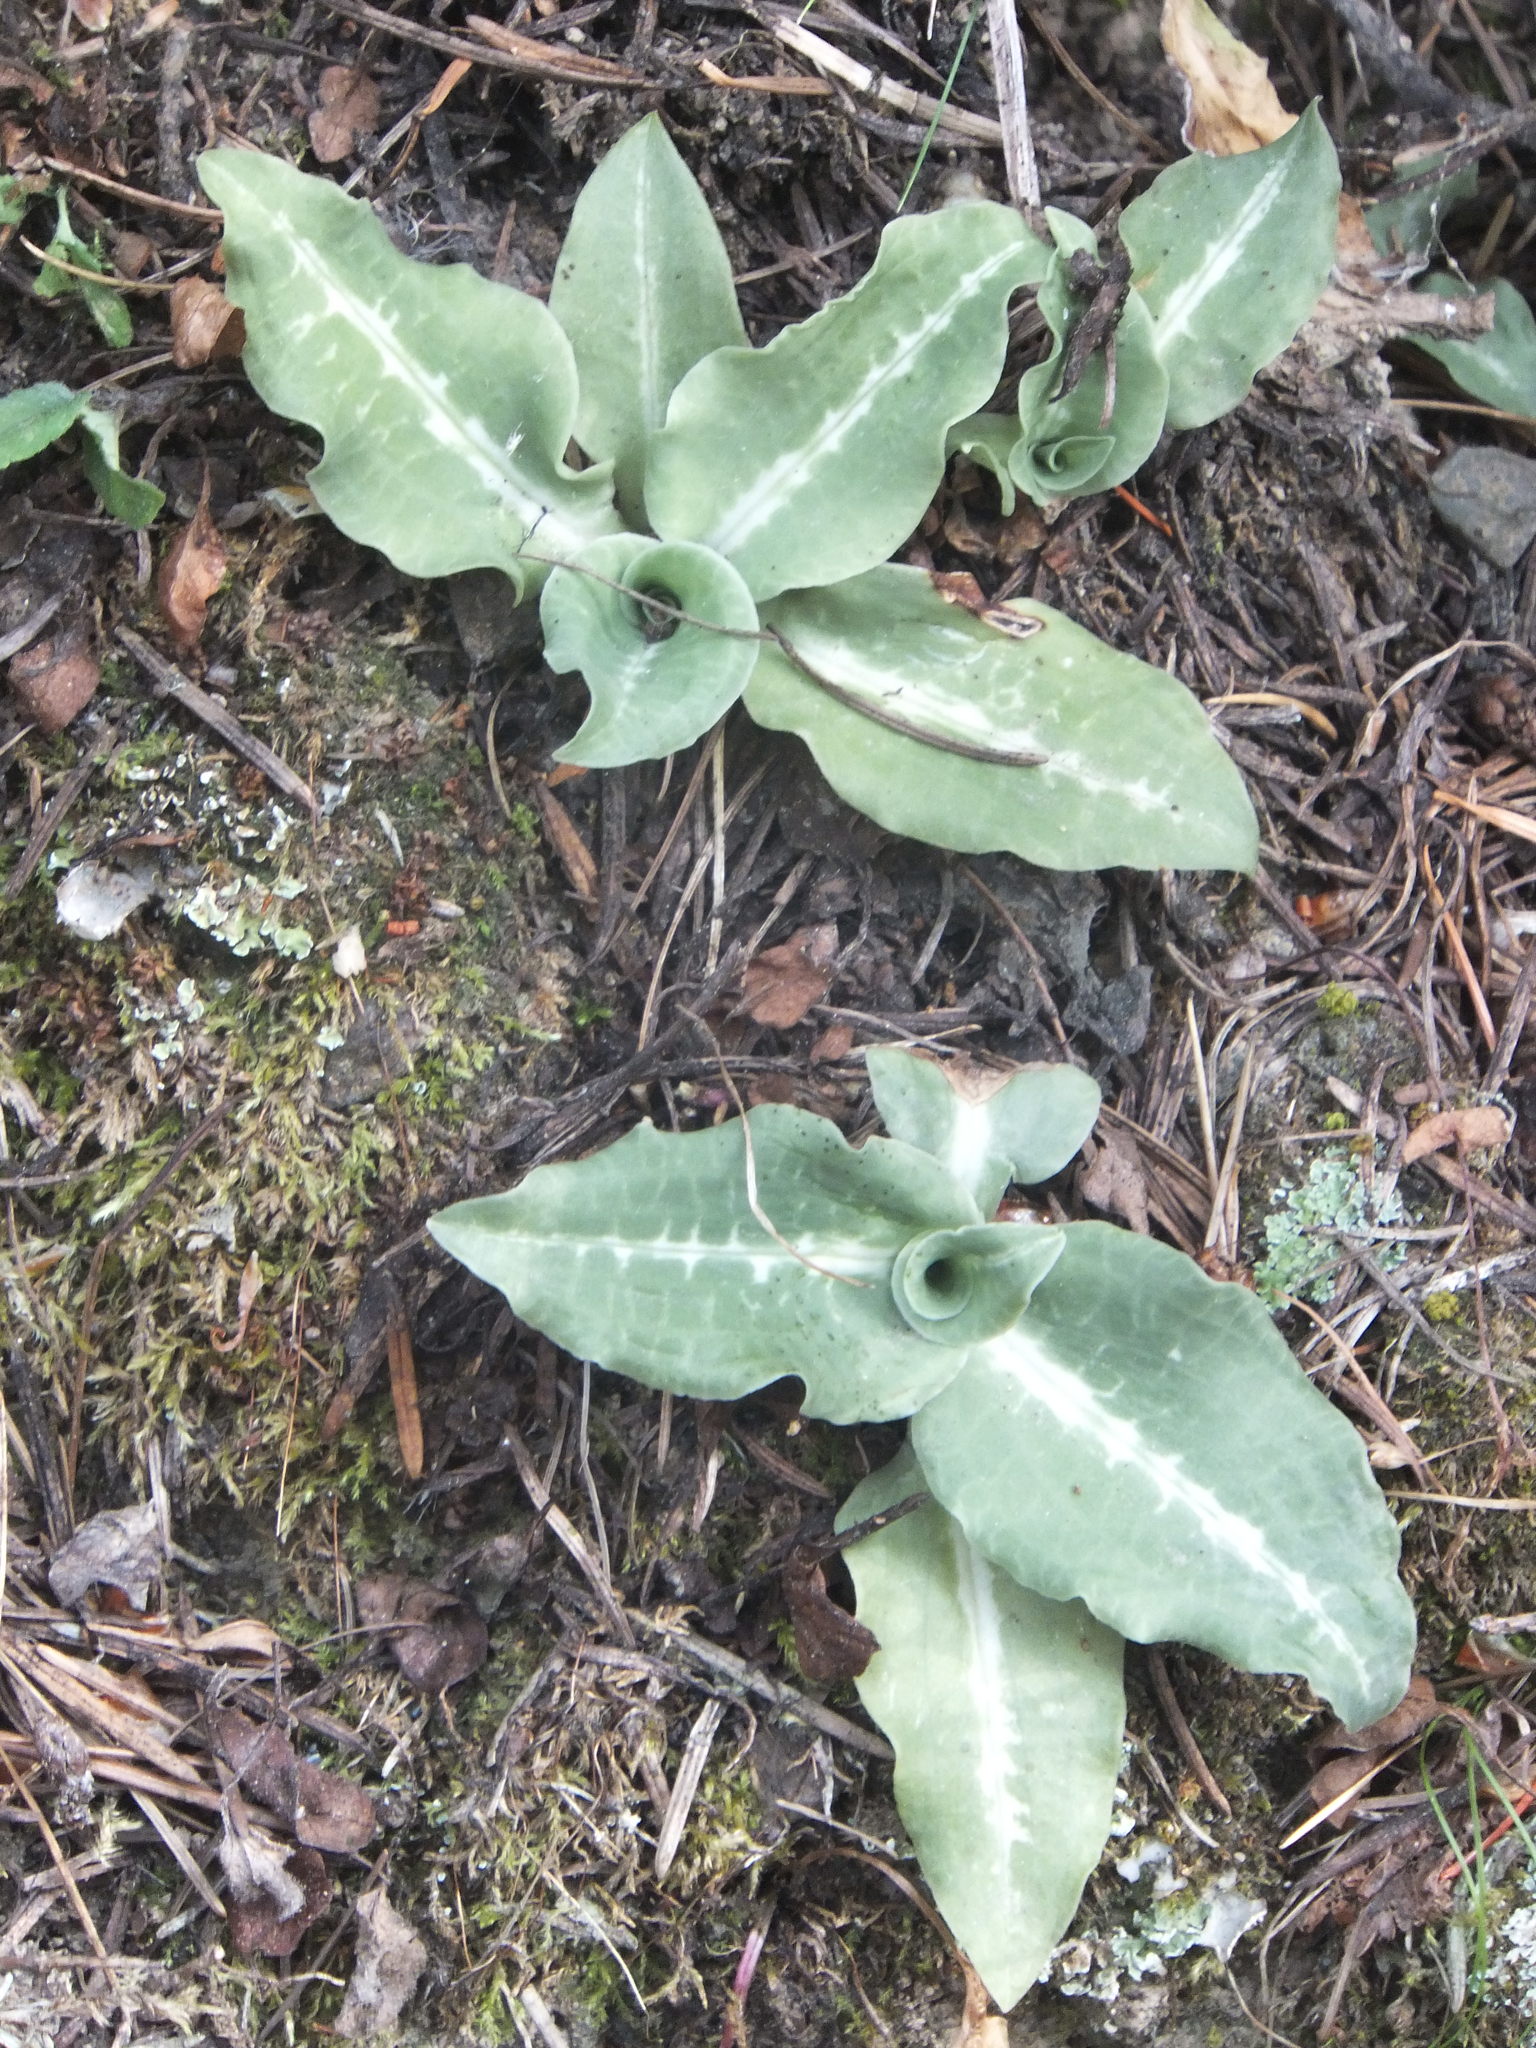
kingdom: Plantae
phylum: Tracheophyta
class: Liliopsida
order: Asparagales
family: Orchidaceae
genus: Goodyera
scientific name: Goodyera oblongifolia
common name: Giant rattlesnake-plantain
